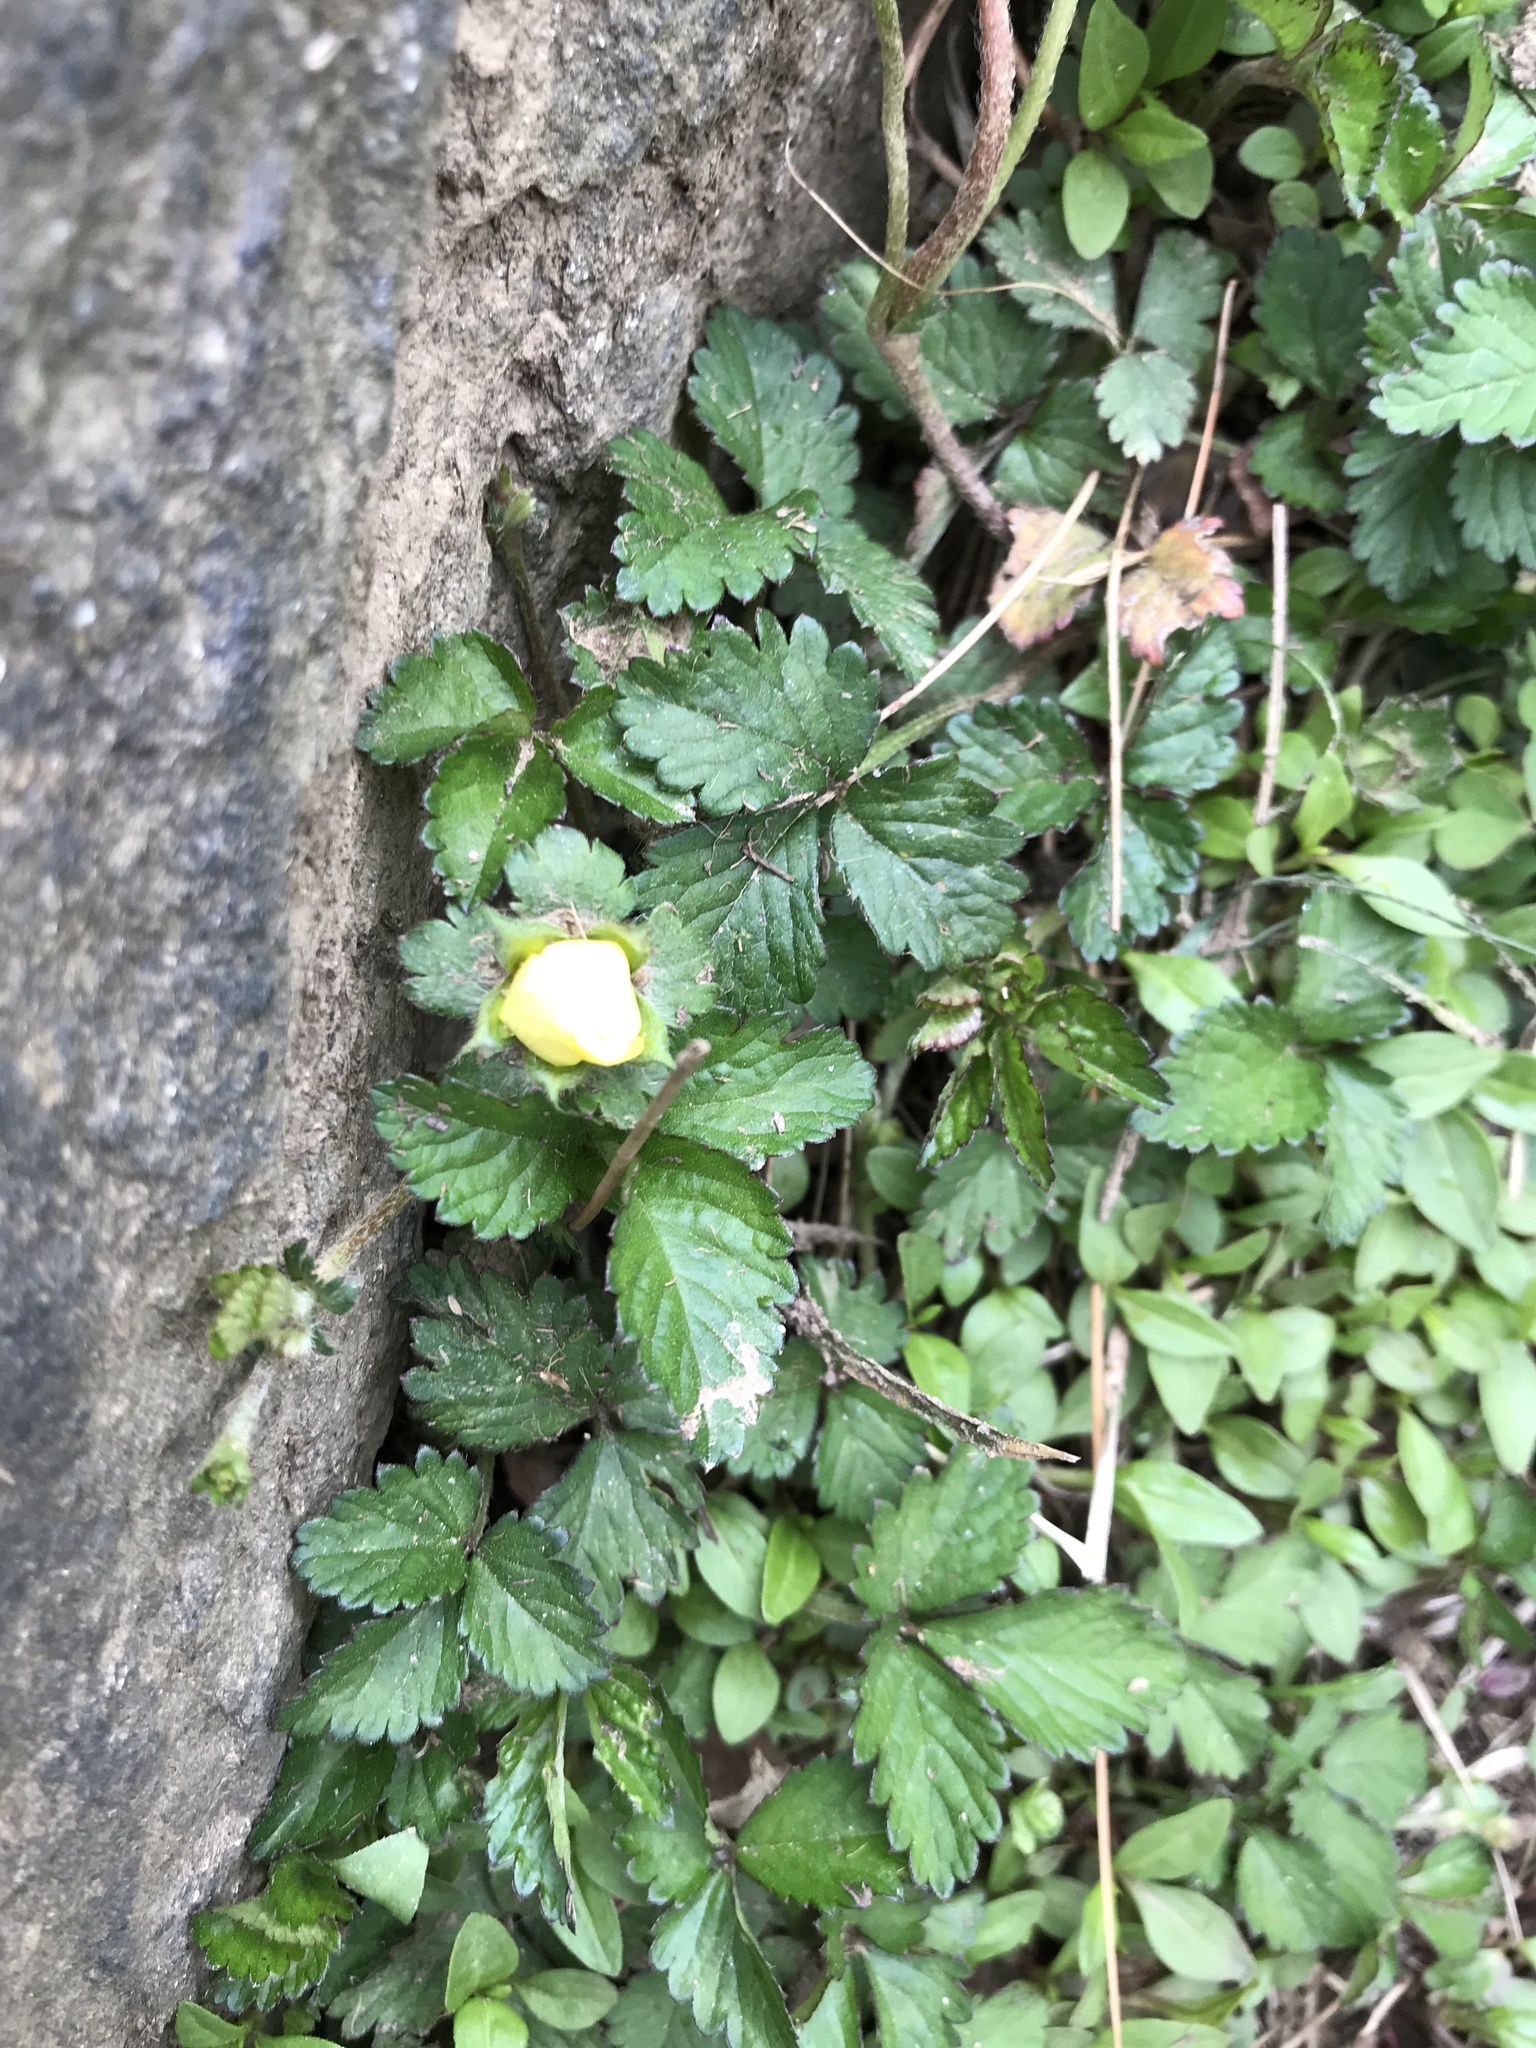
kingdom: Plantae
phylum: Tracheophyta
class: Magnoliopsida
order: Rosales
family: Rosaceae
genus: Potentilla
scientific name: Potentilla indica
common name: Yellow-flowered strawberry
